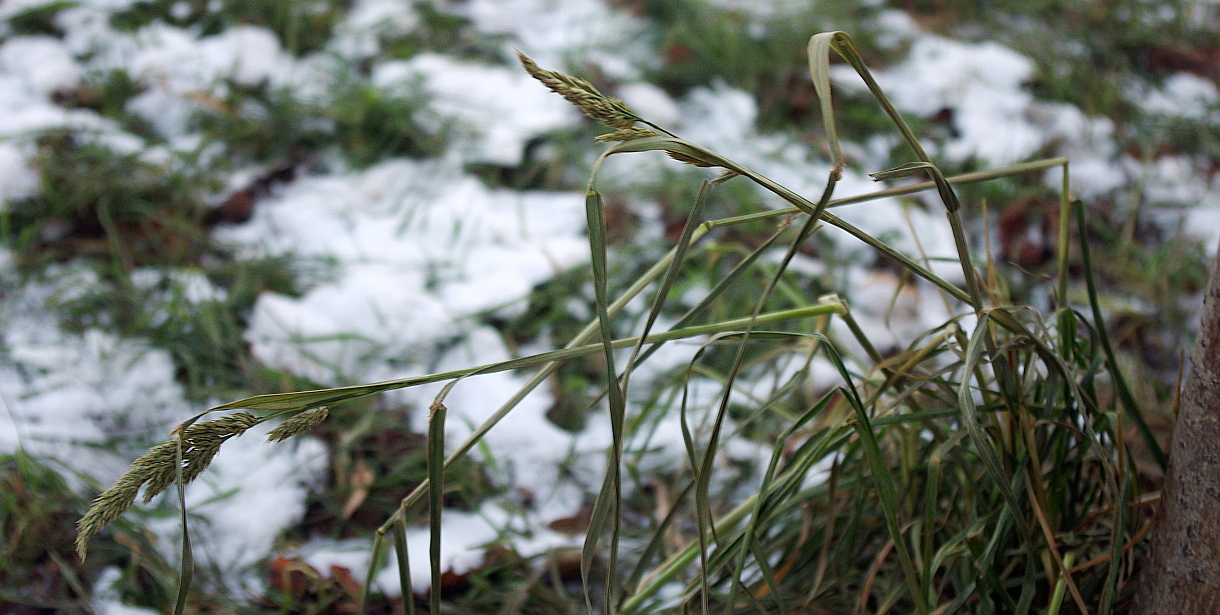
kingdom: Plantae
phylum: Tracheophyta
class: Liliopsida
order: Poales
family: Poaceae
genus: Dactylis
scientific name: Dactylis glomerata
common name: Orchardgrass
